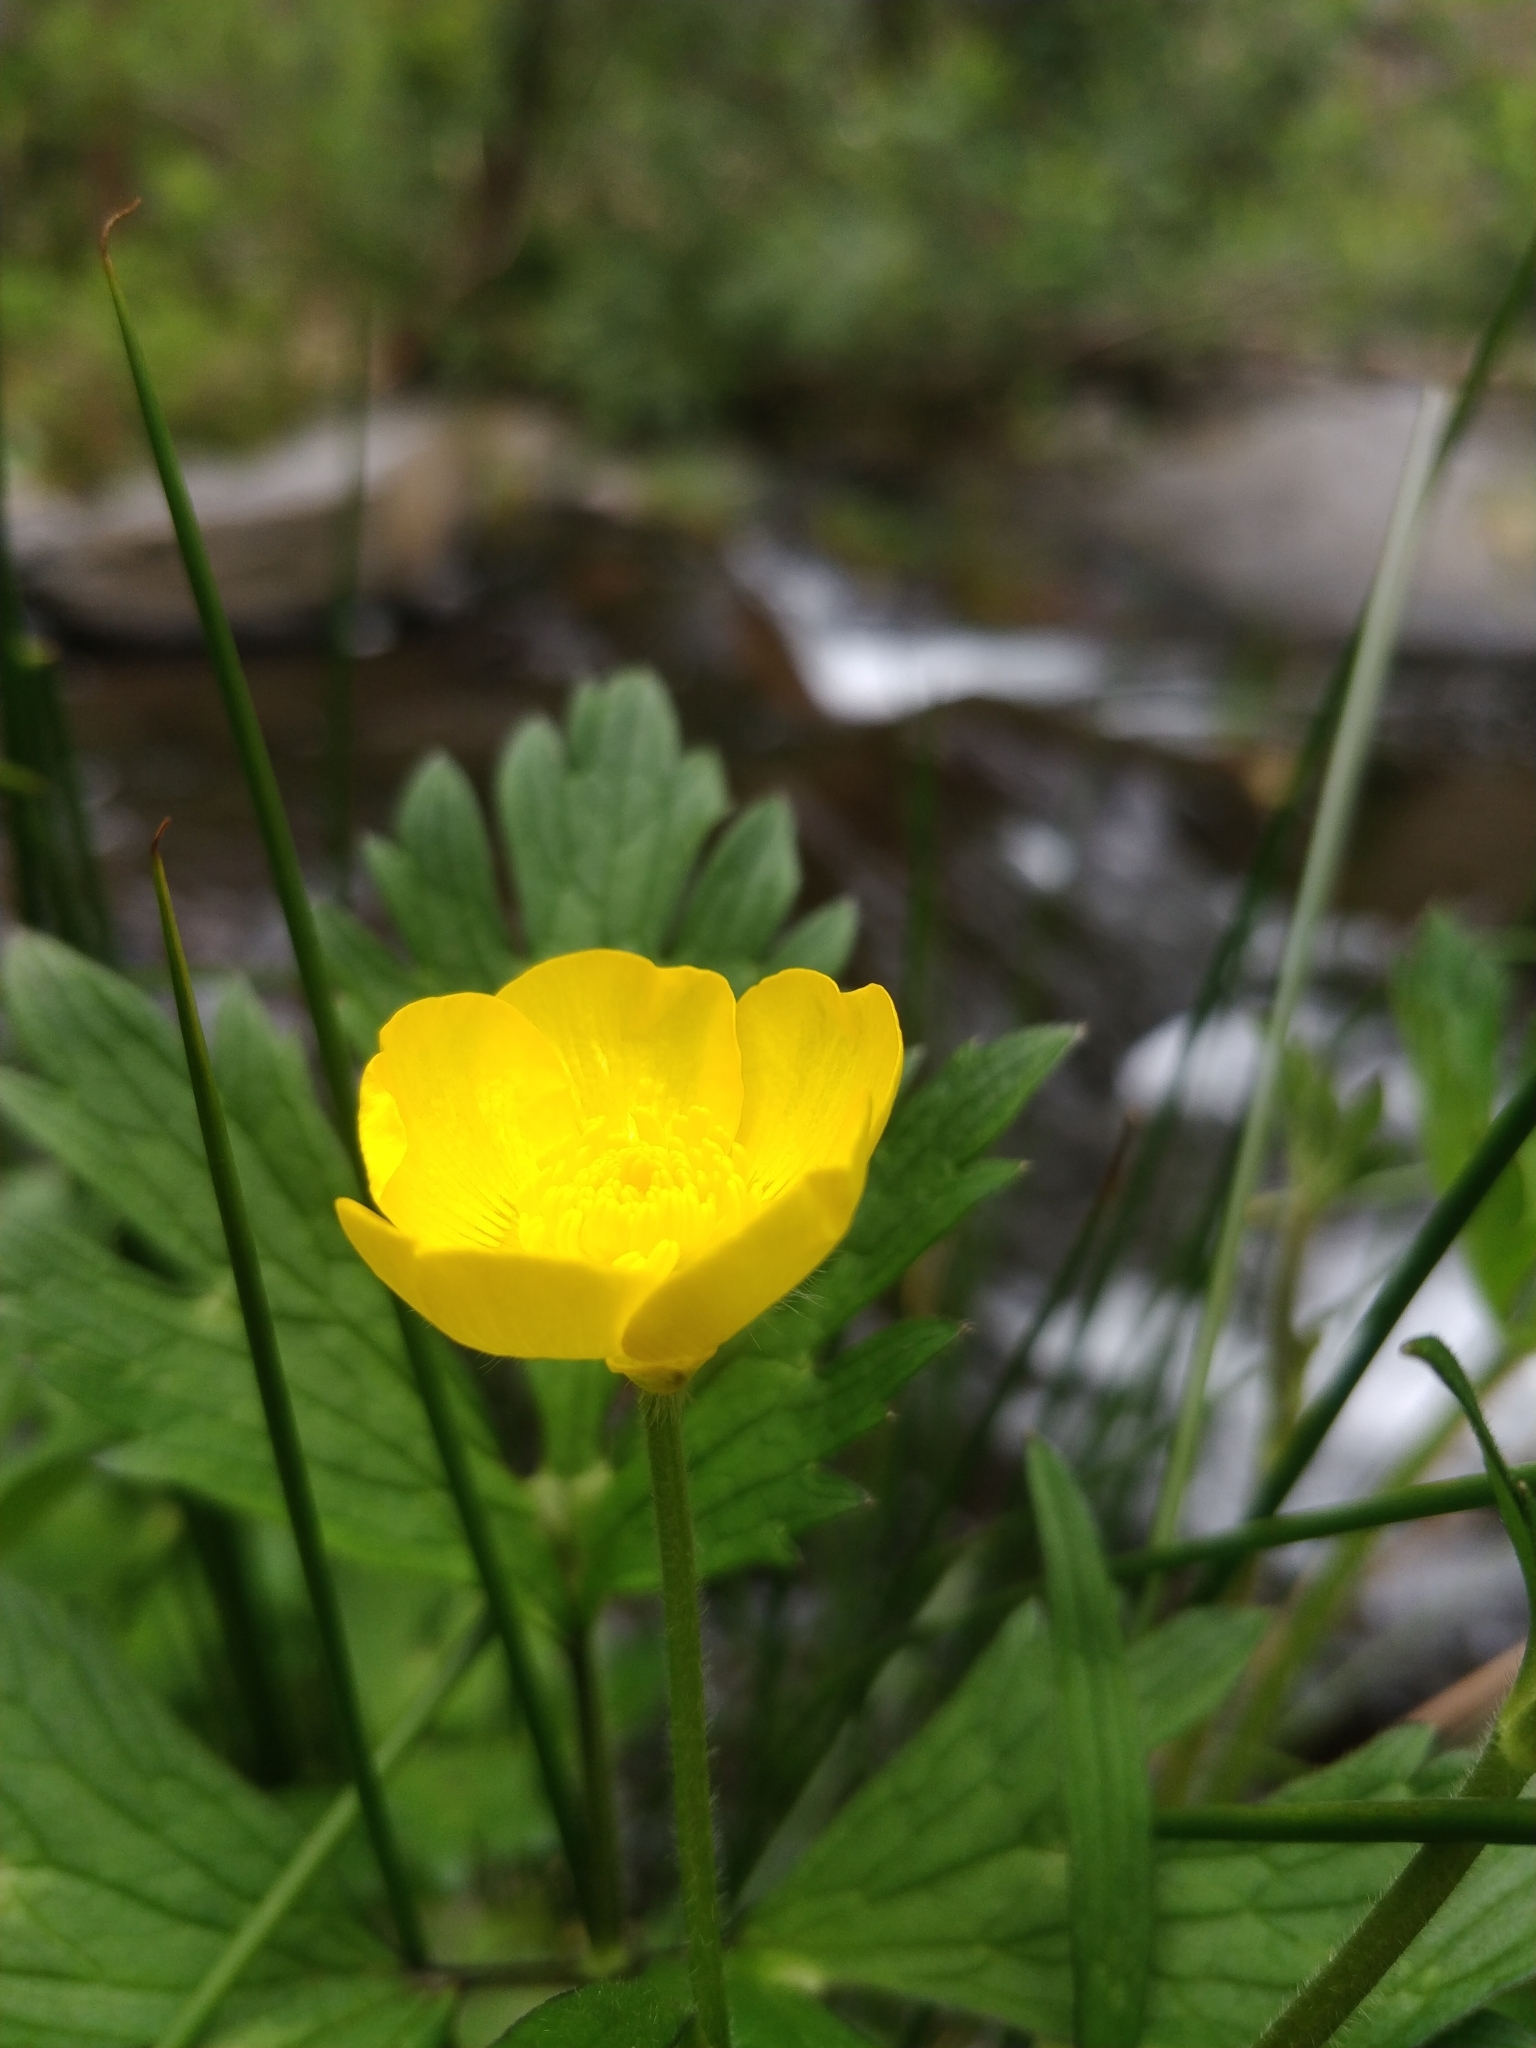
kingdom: Plantae
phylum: Tracheophyta
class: Magnoliopsida
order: Ranunculales
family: Ranunculaceae
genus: Ranunculus
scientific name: Ranunculus repens
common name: Creeping buttercup
